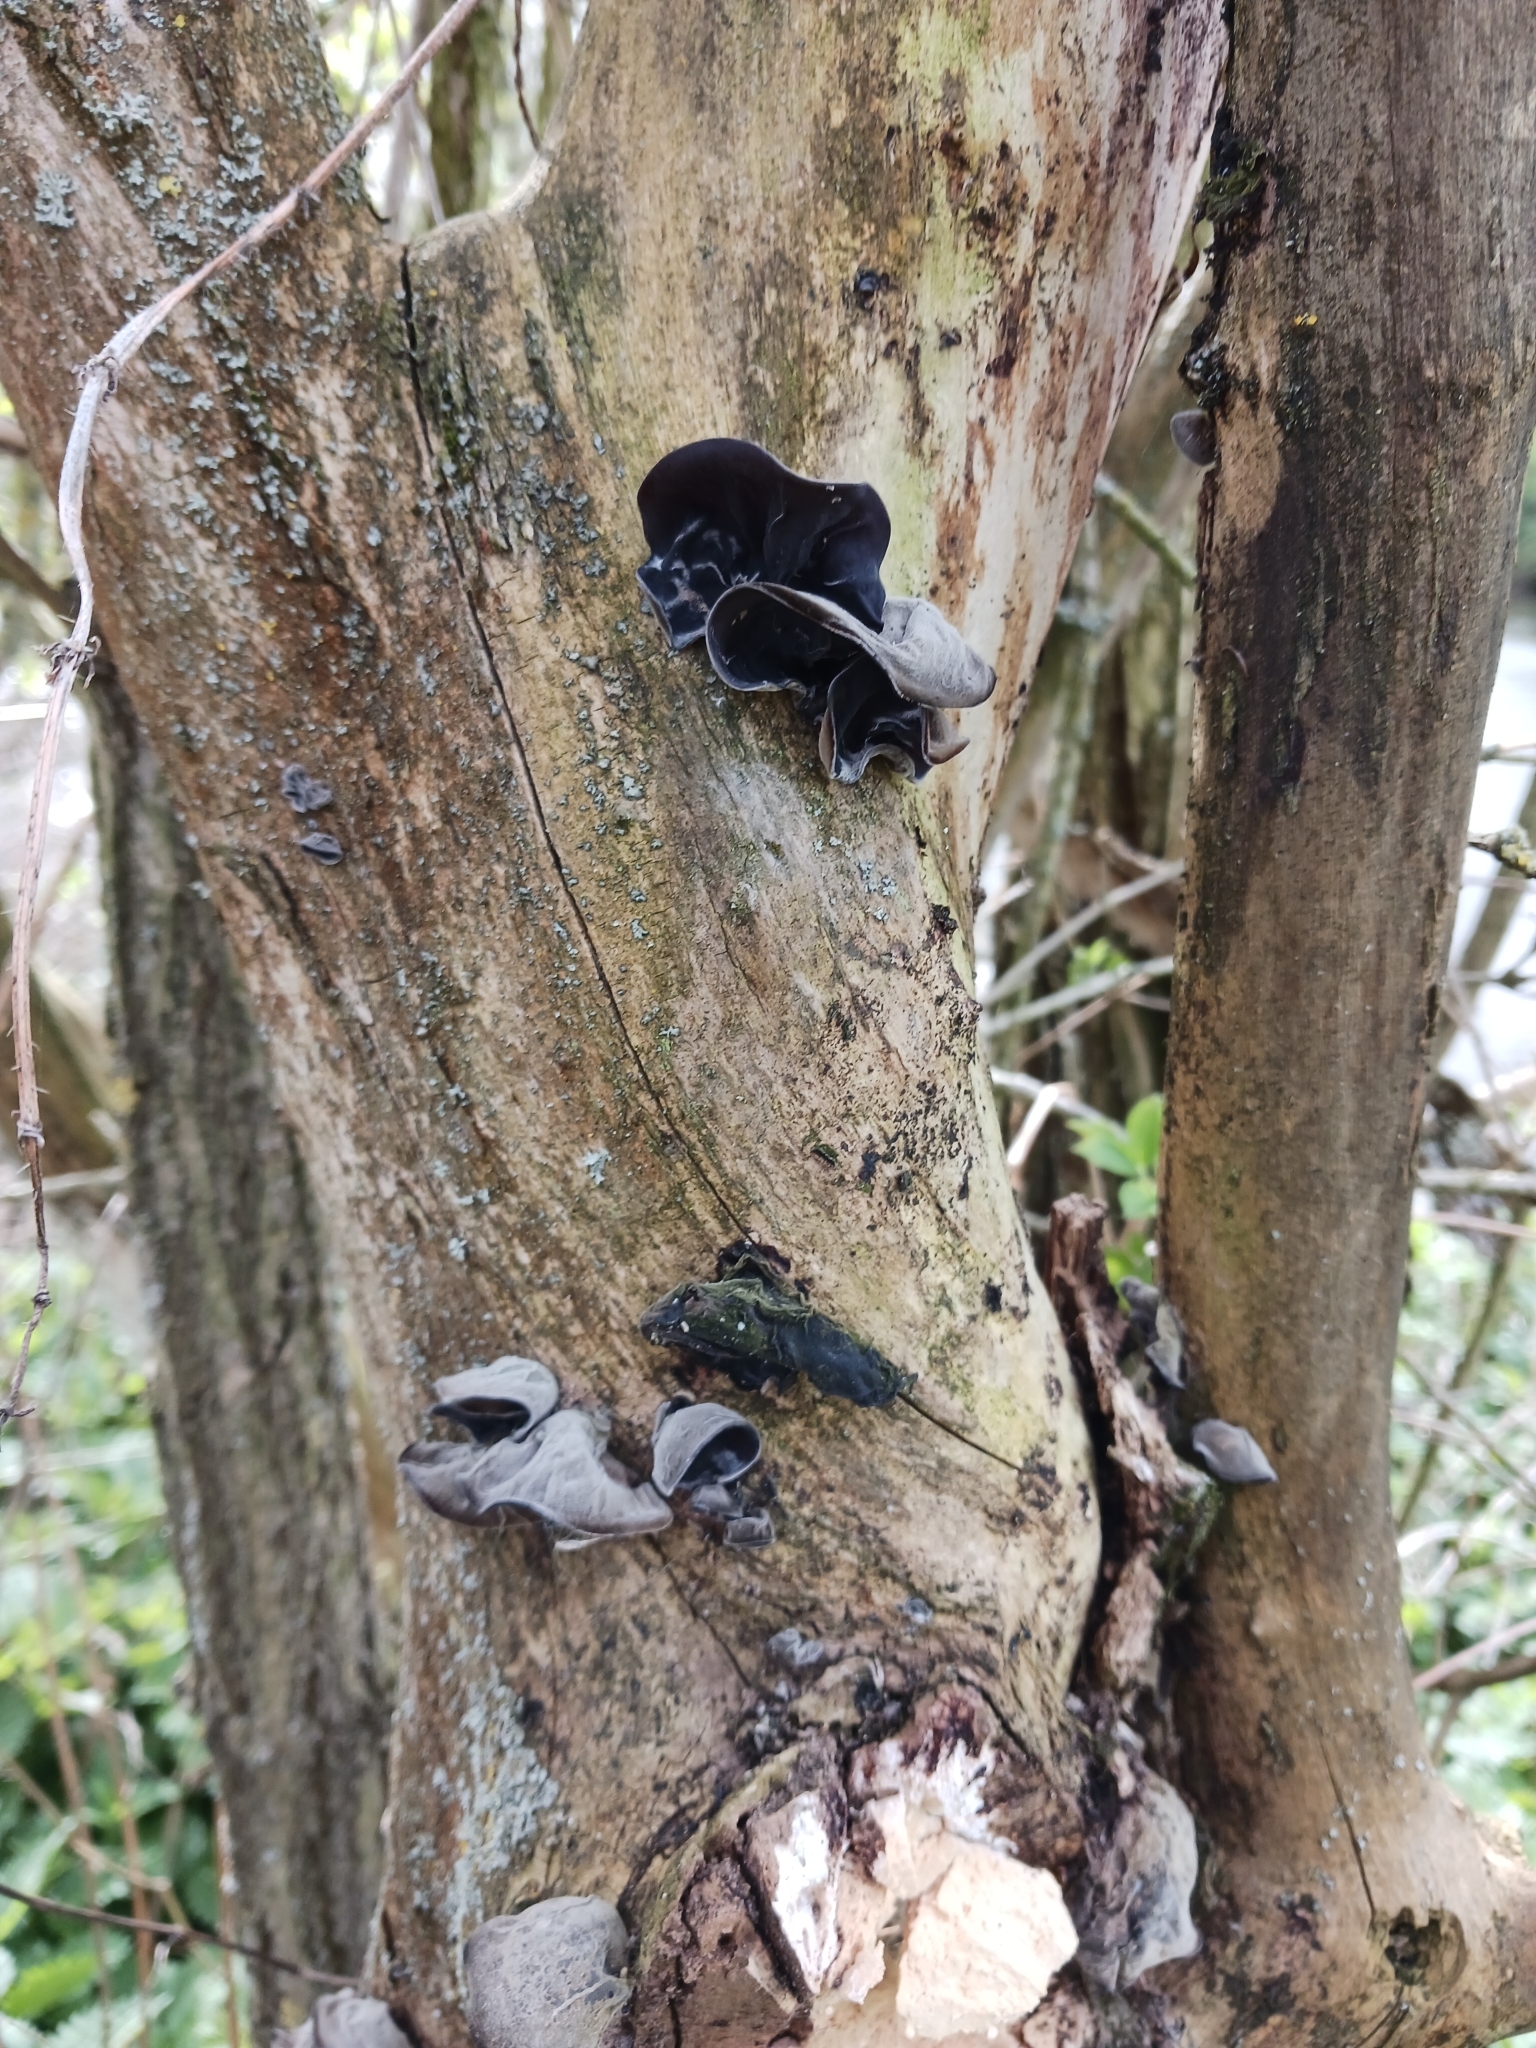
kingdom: Fungi
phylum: Basidiomycota
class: Agaricomycetes
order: Auriculariales
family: Auriculariaceae
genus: Auricularia
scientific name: Auricularia auricula-judae
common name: Jelly ear
